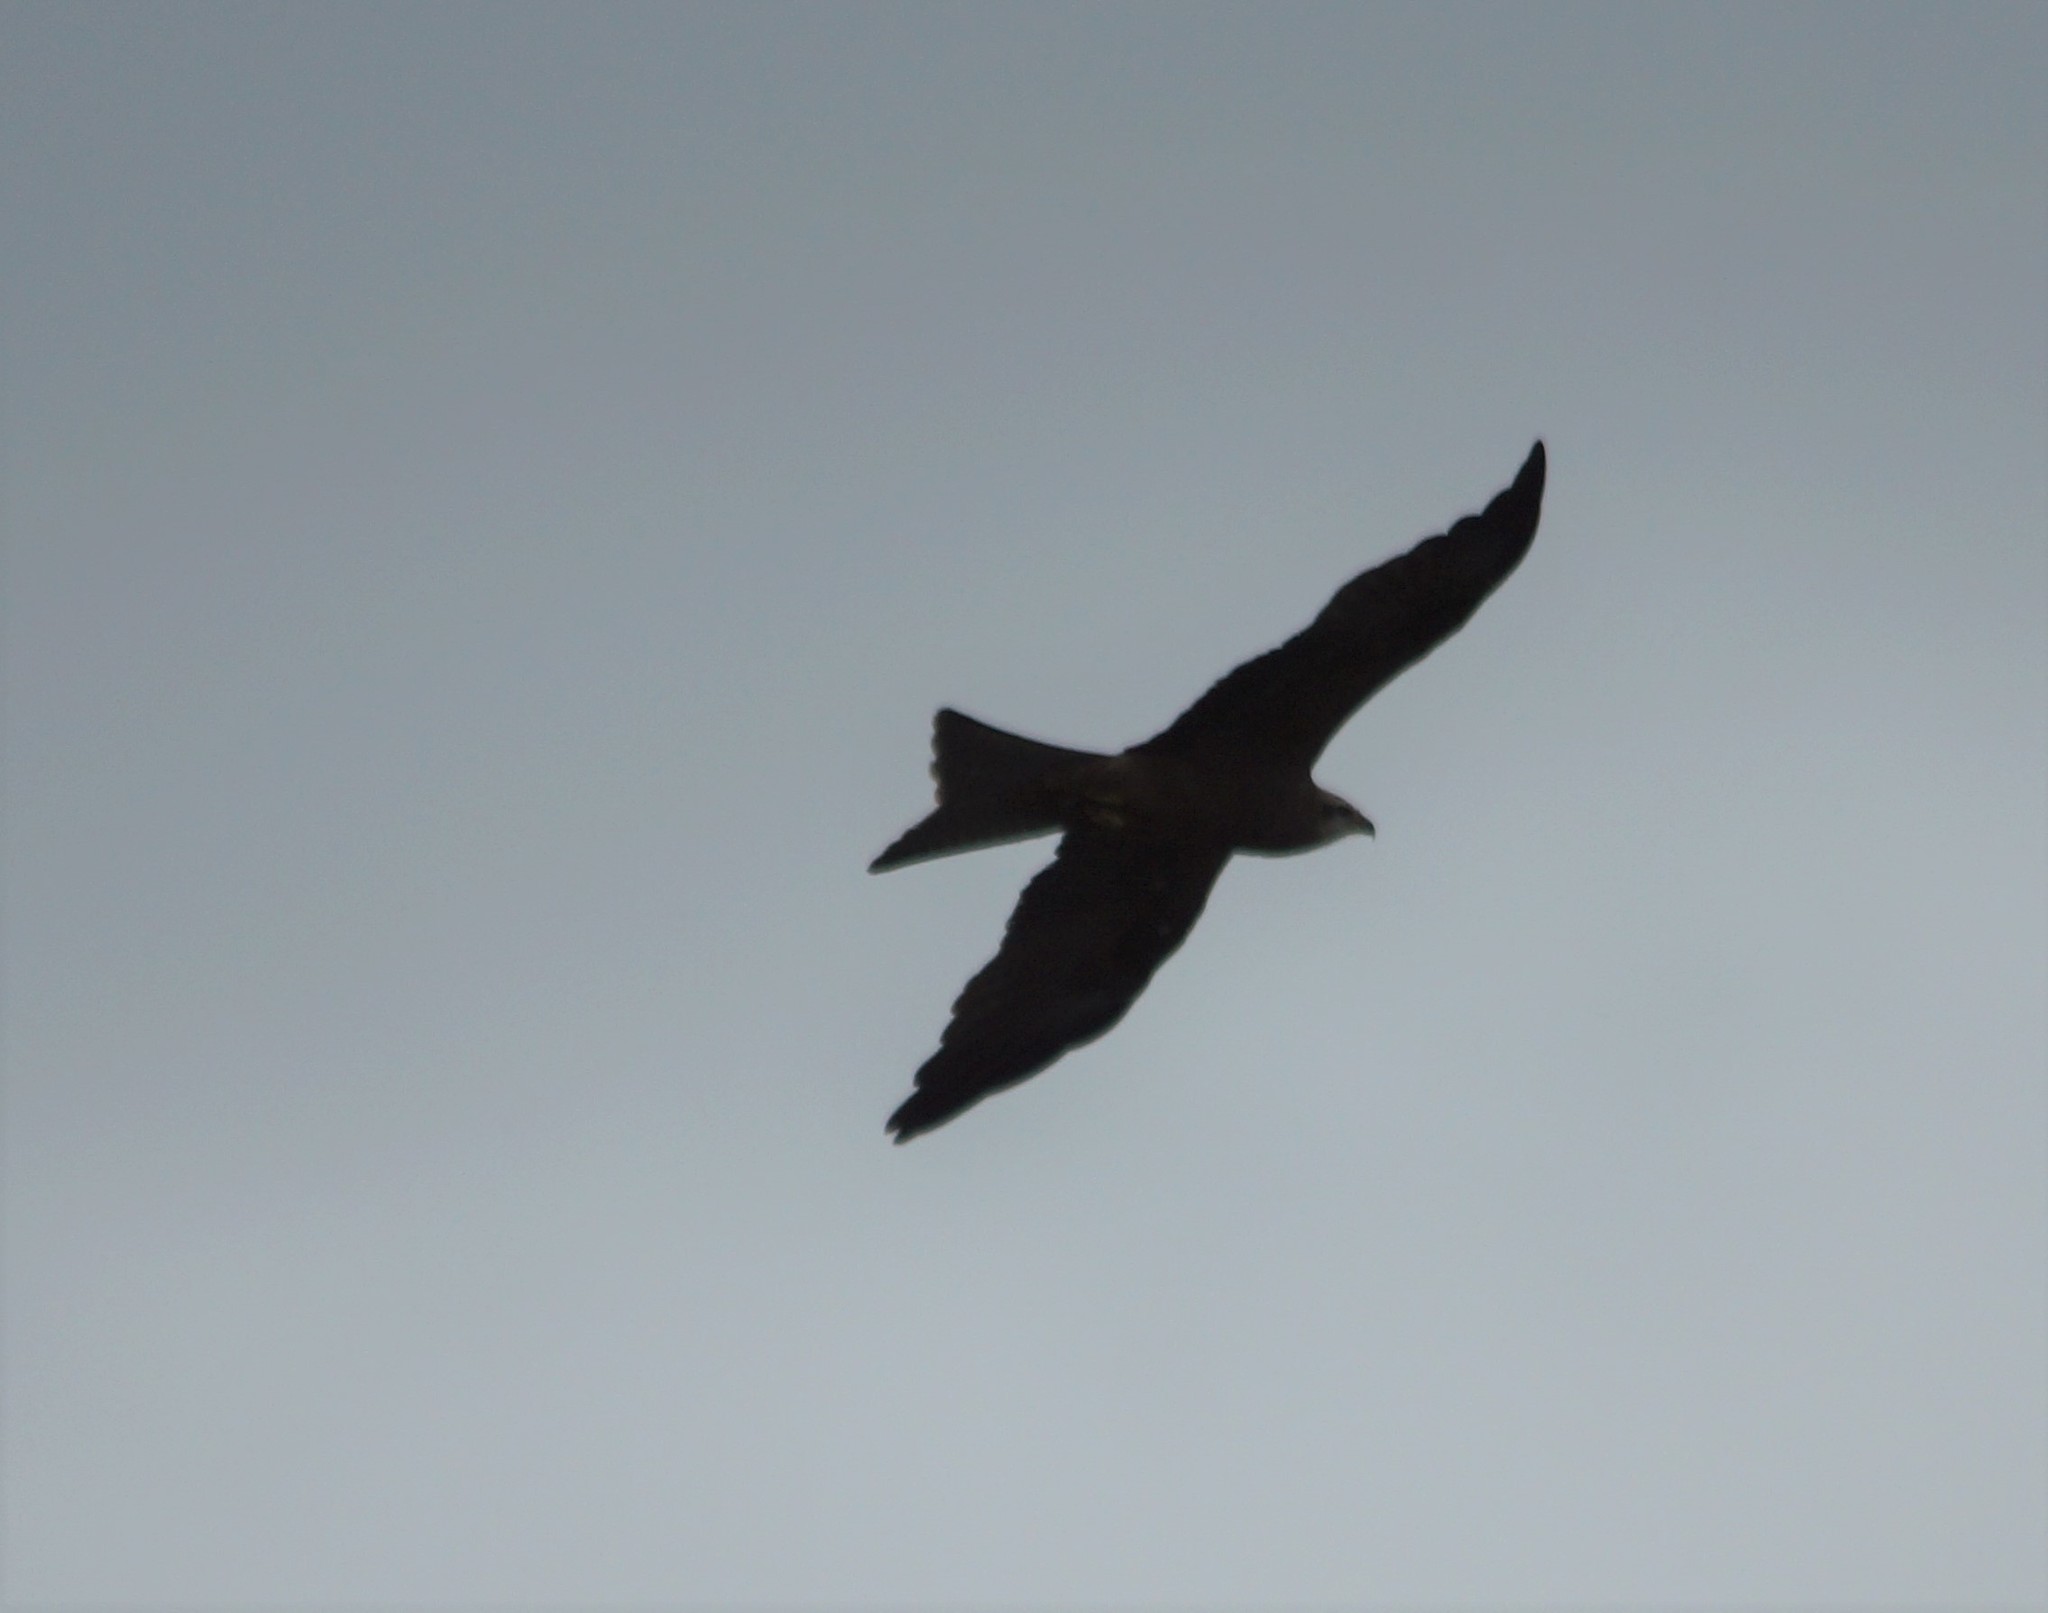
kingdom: Animalia
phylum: Chordata
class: Aves
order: Accipitriformes
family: Accipitridae
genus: Milvus
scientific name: Milvus migrans
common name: Black kite
